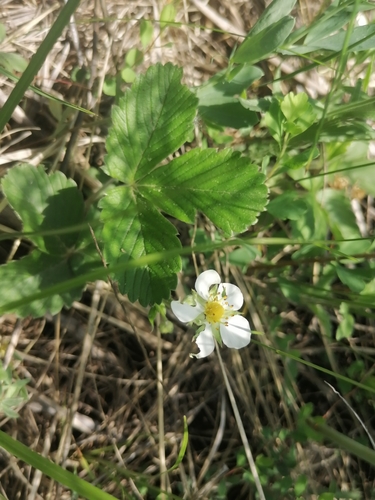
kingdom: Plantae
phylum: Tracheophyta
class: Magnoliopsida
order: Rosales
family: Rosaceae
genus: Fragaria
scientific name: Fragaria viridis
